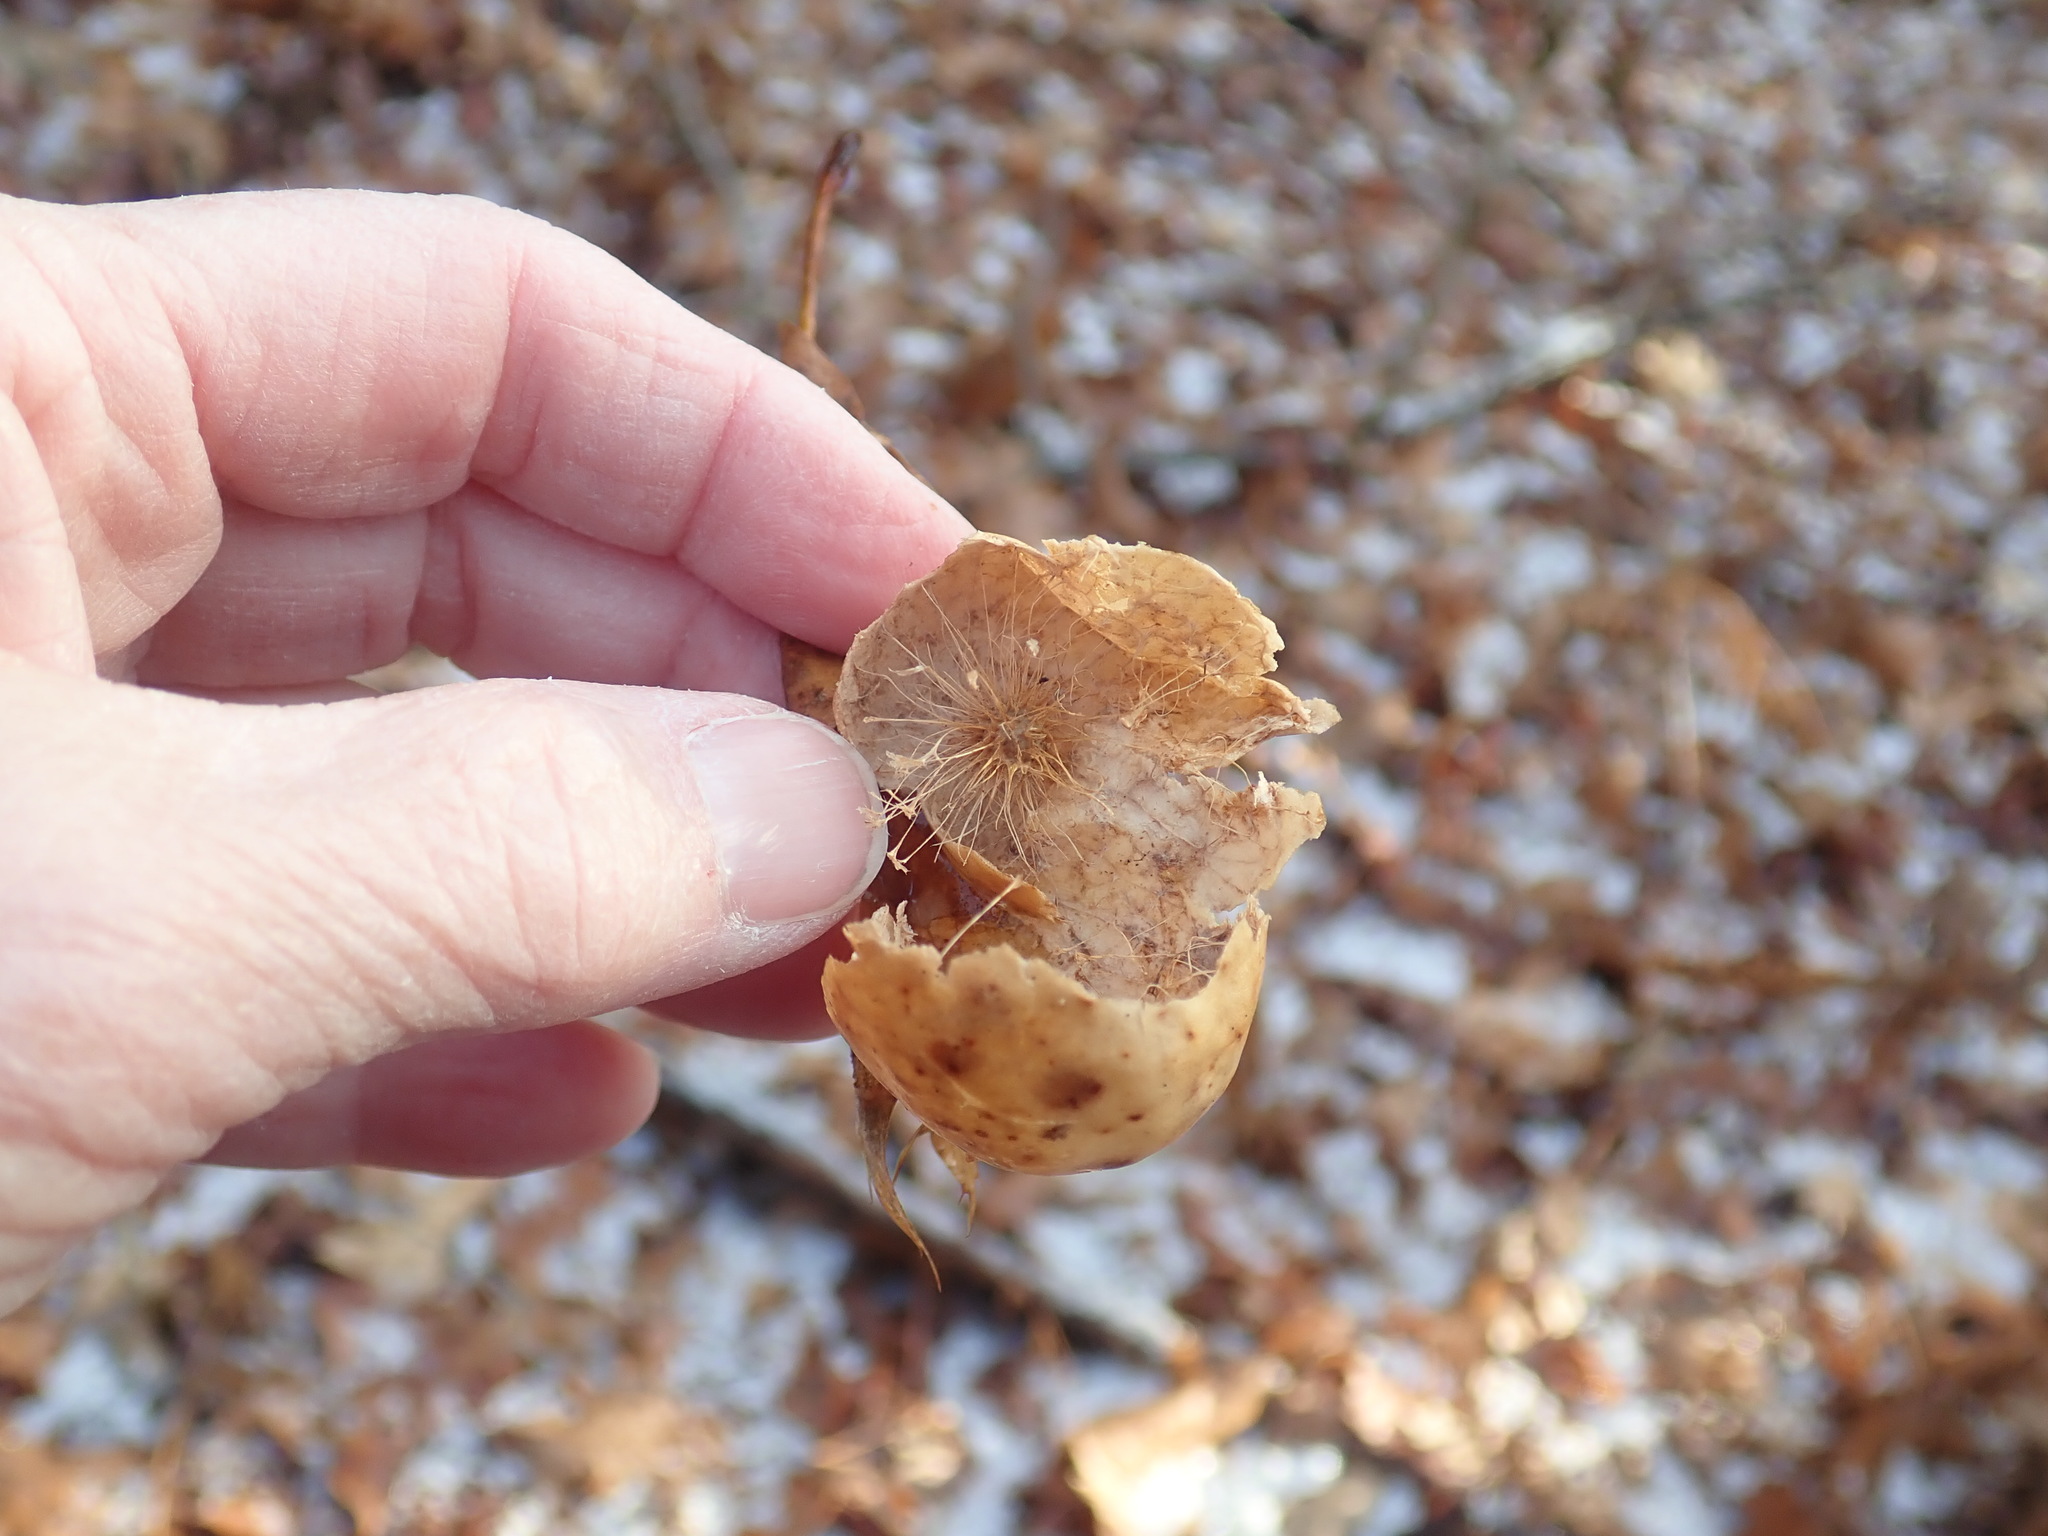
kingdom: Animalia
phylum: Arthropoda
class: Insecta
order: Hymenoptera
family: Cynipidae
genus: Amphibolips
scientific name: Amphibolips
